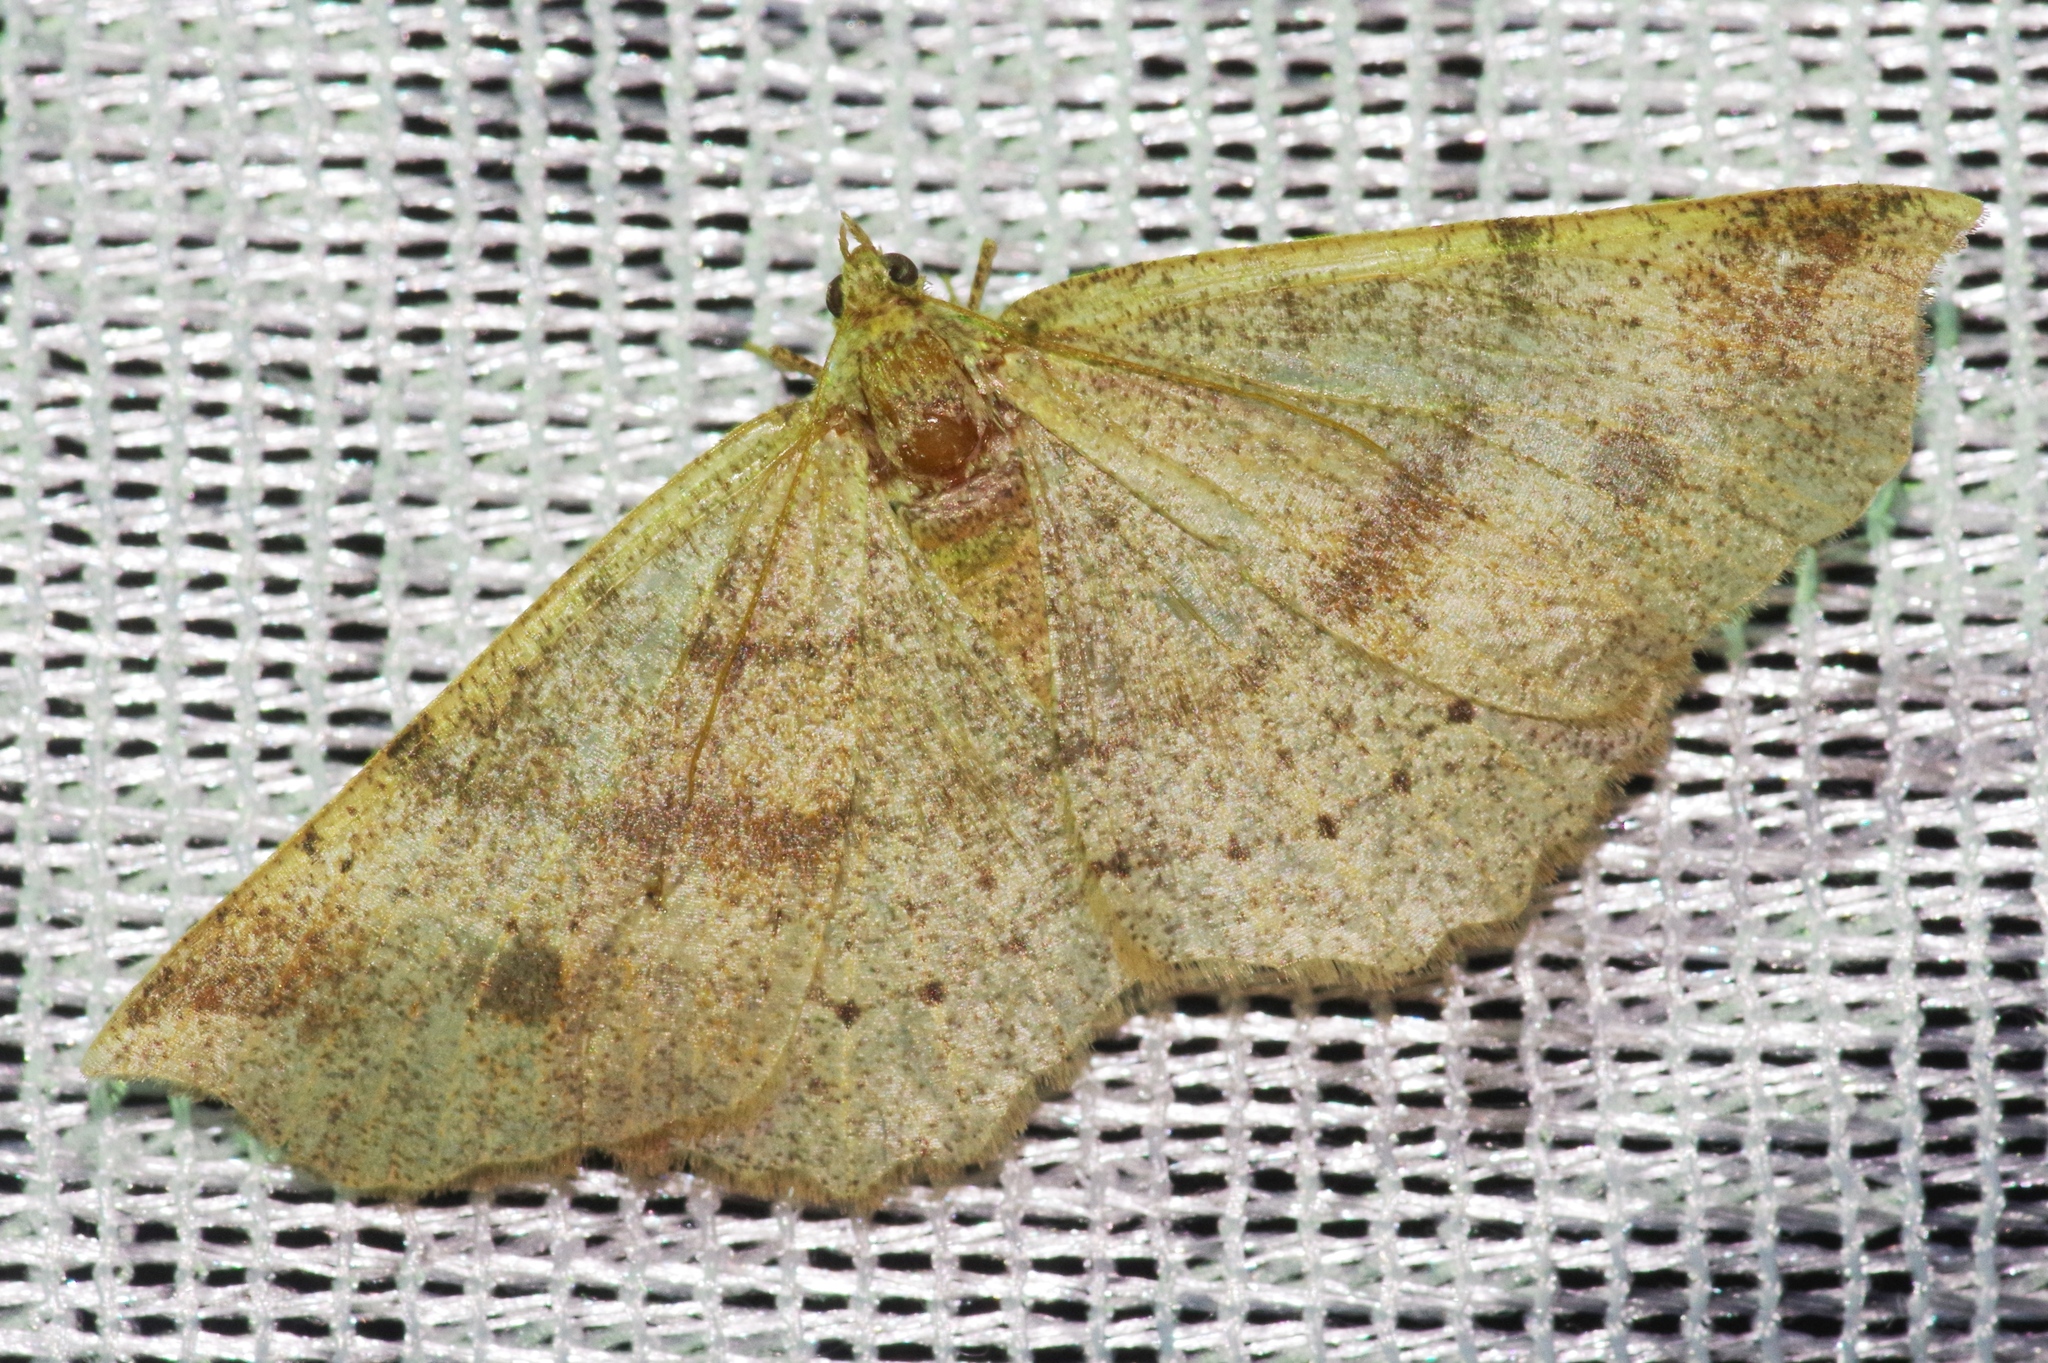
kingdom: Animalia
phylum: Arthropoda
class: Insecta
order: Lepidoptera
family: Geometridae
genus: Xerodes
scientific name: Xerodes albonotaria
